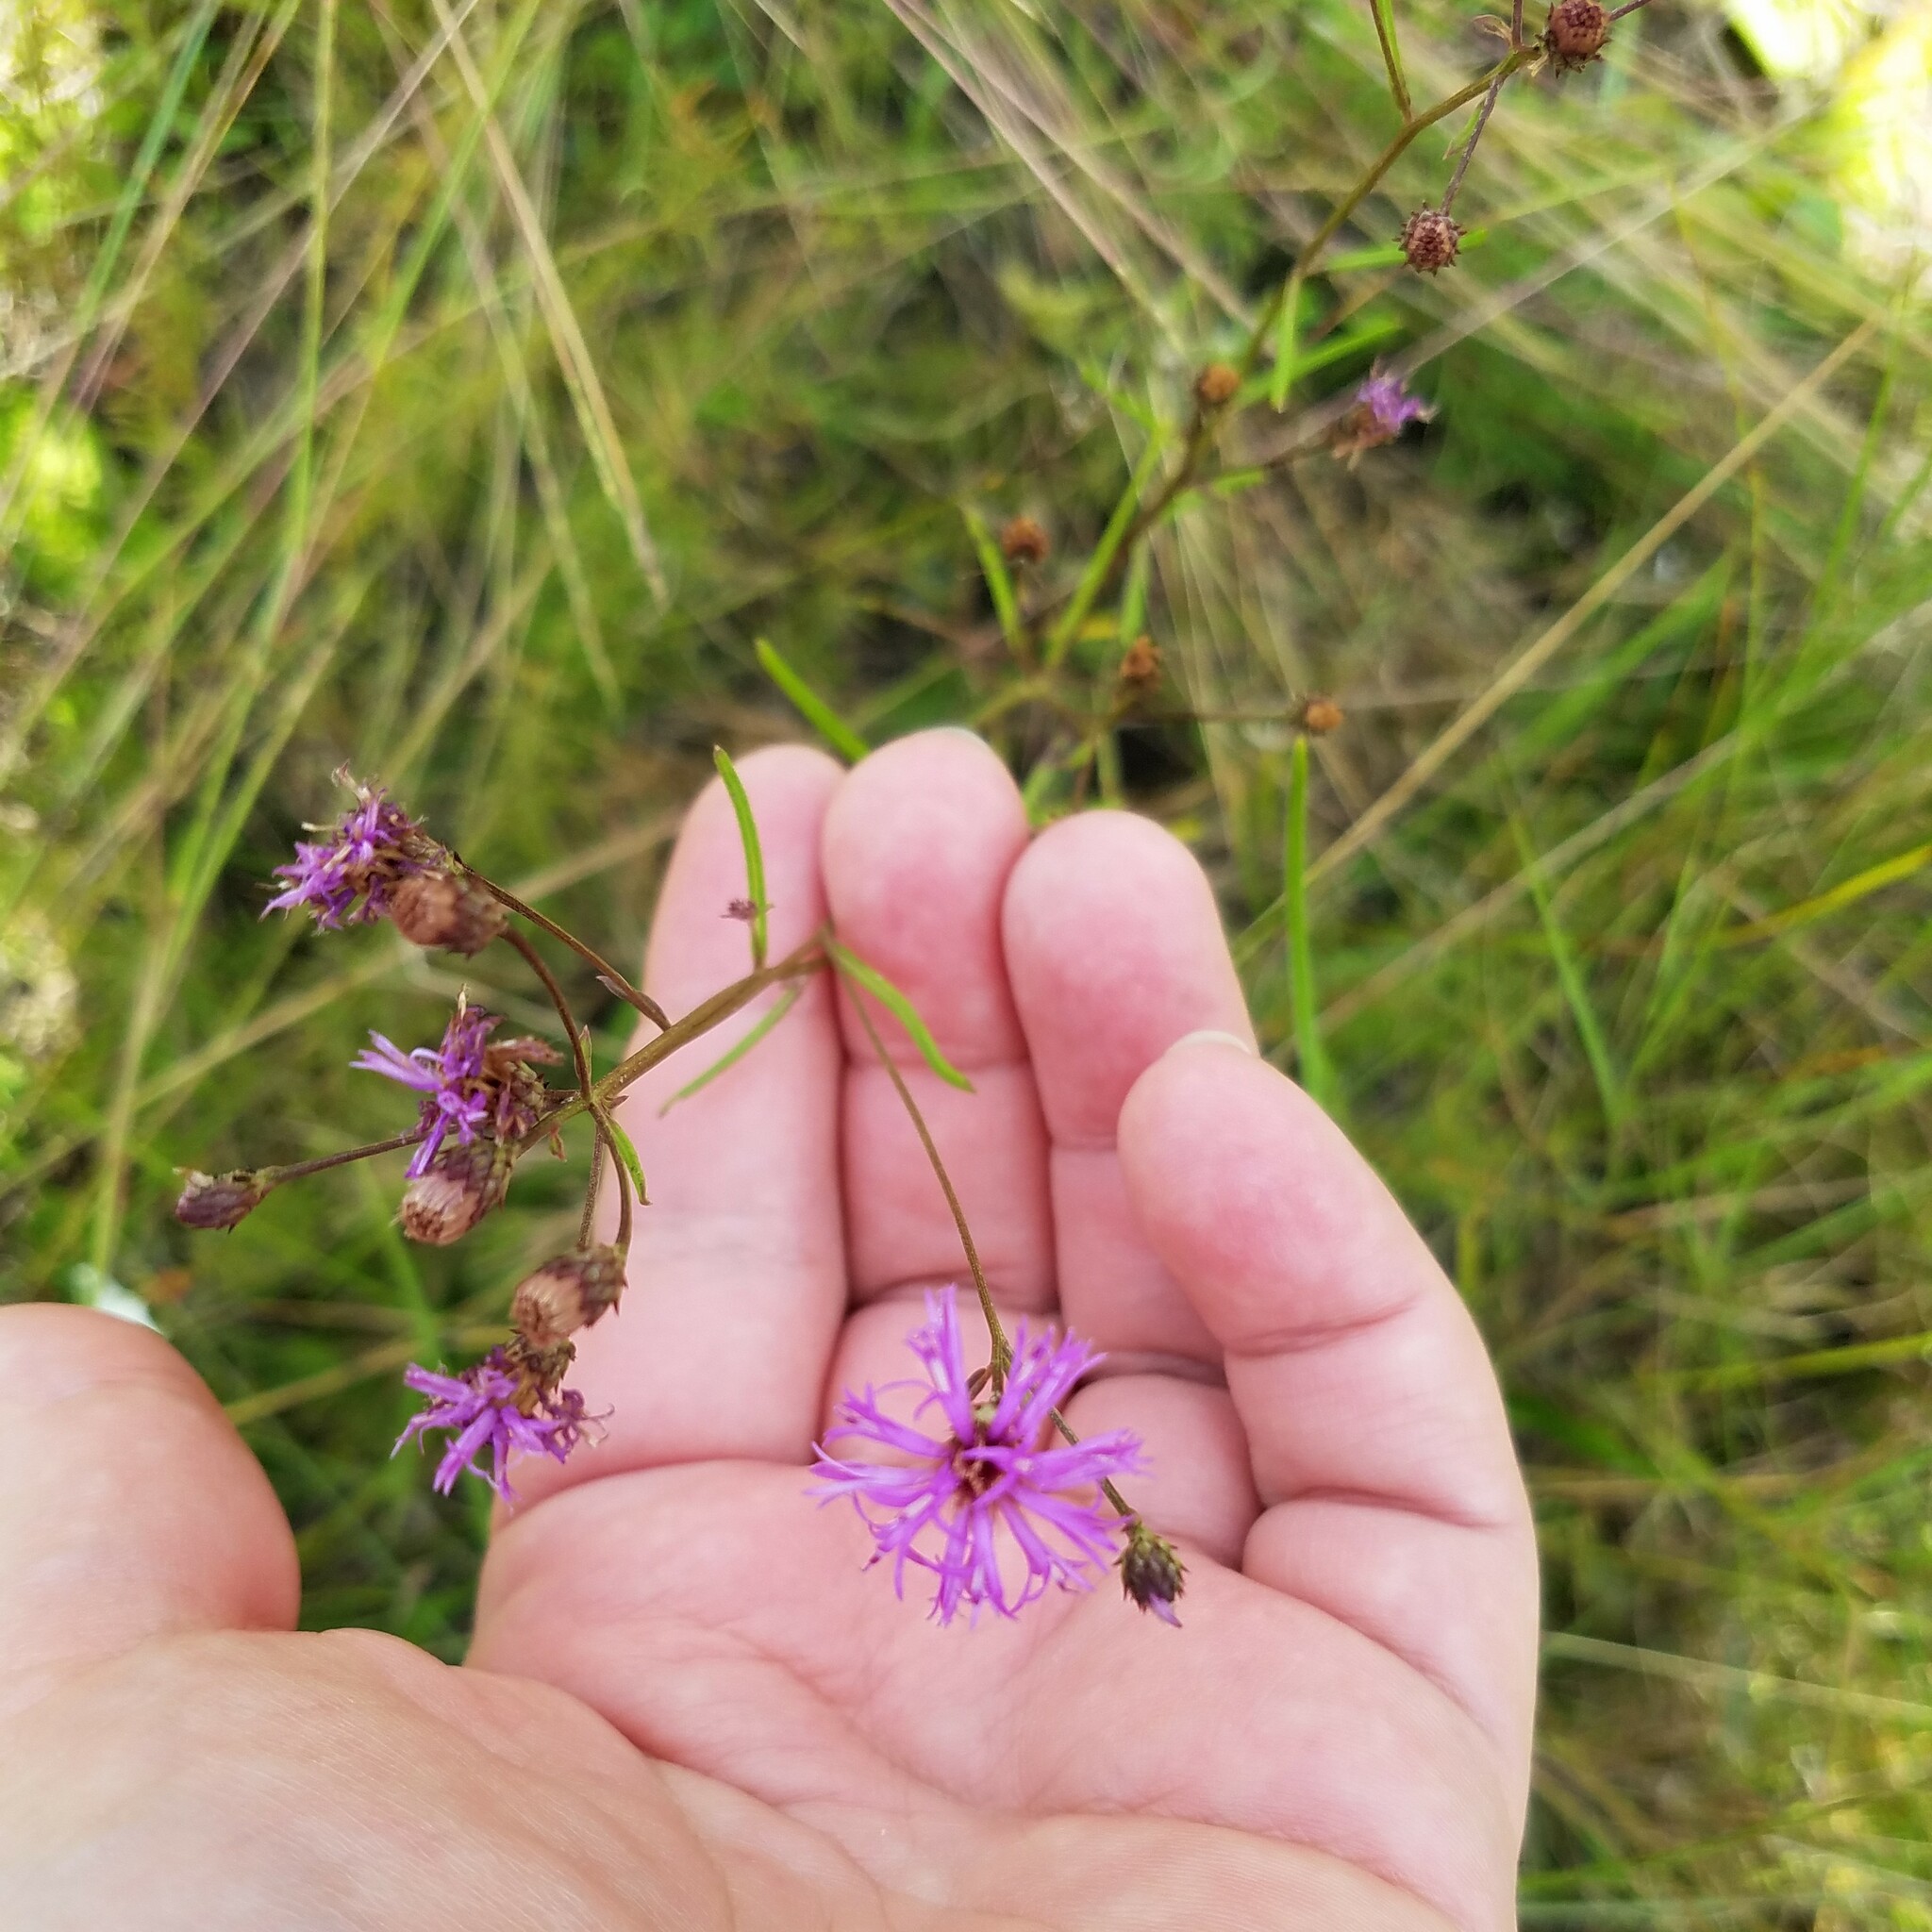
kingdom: Plantae
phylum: Tracheophyta
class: Magnoliopsida
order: Asterales
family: Asteraceae
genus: Vernonia
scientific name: Vernonia angustifolia
